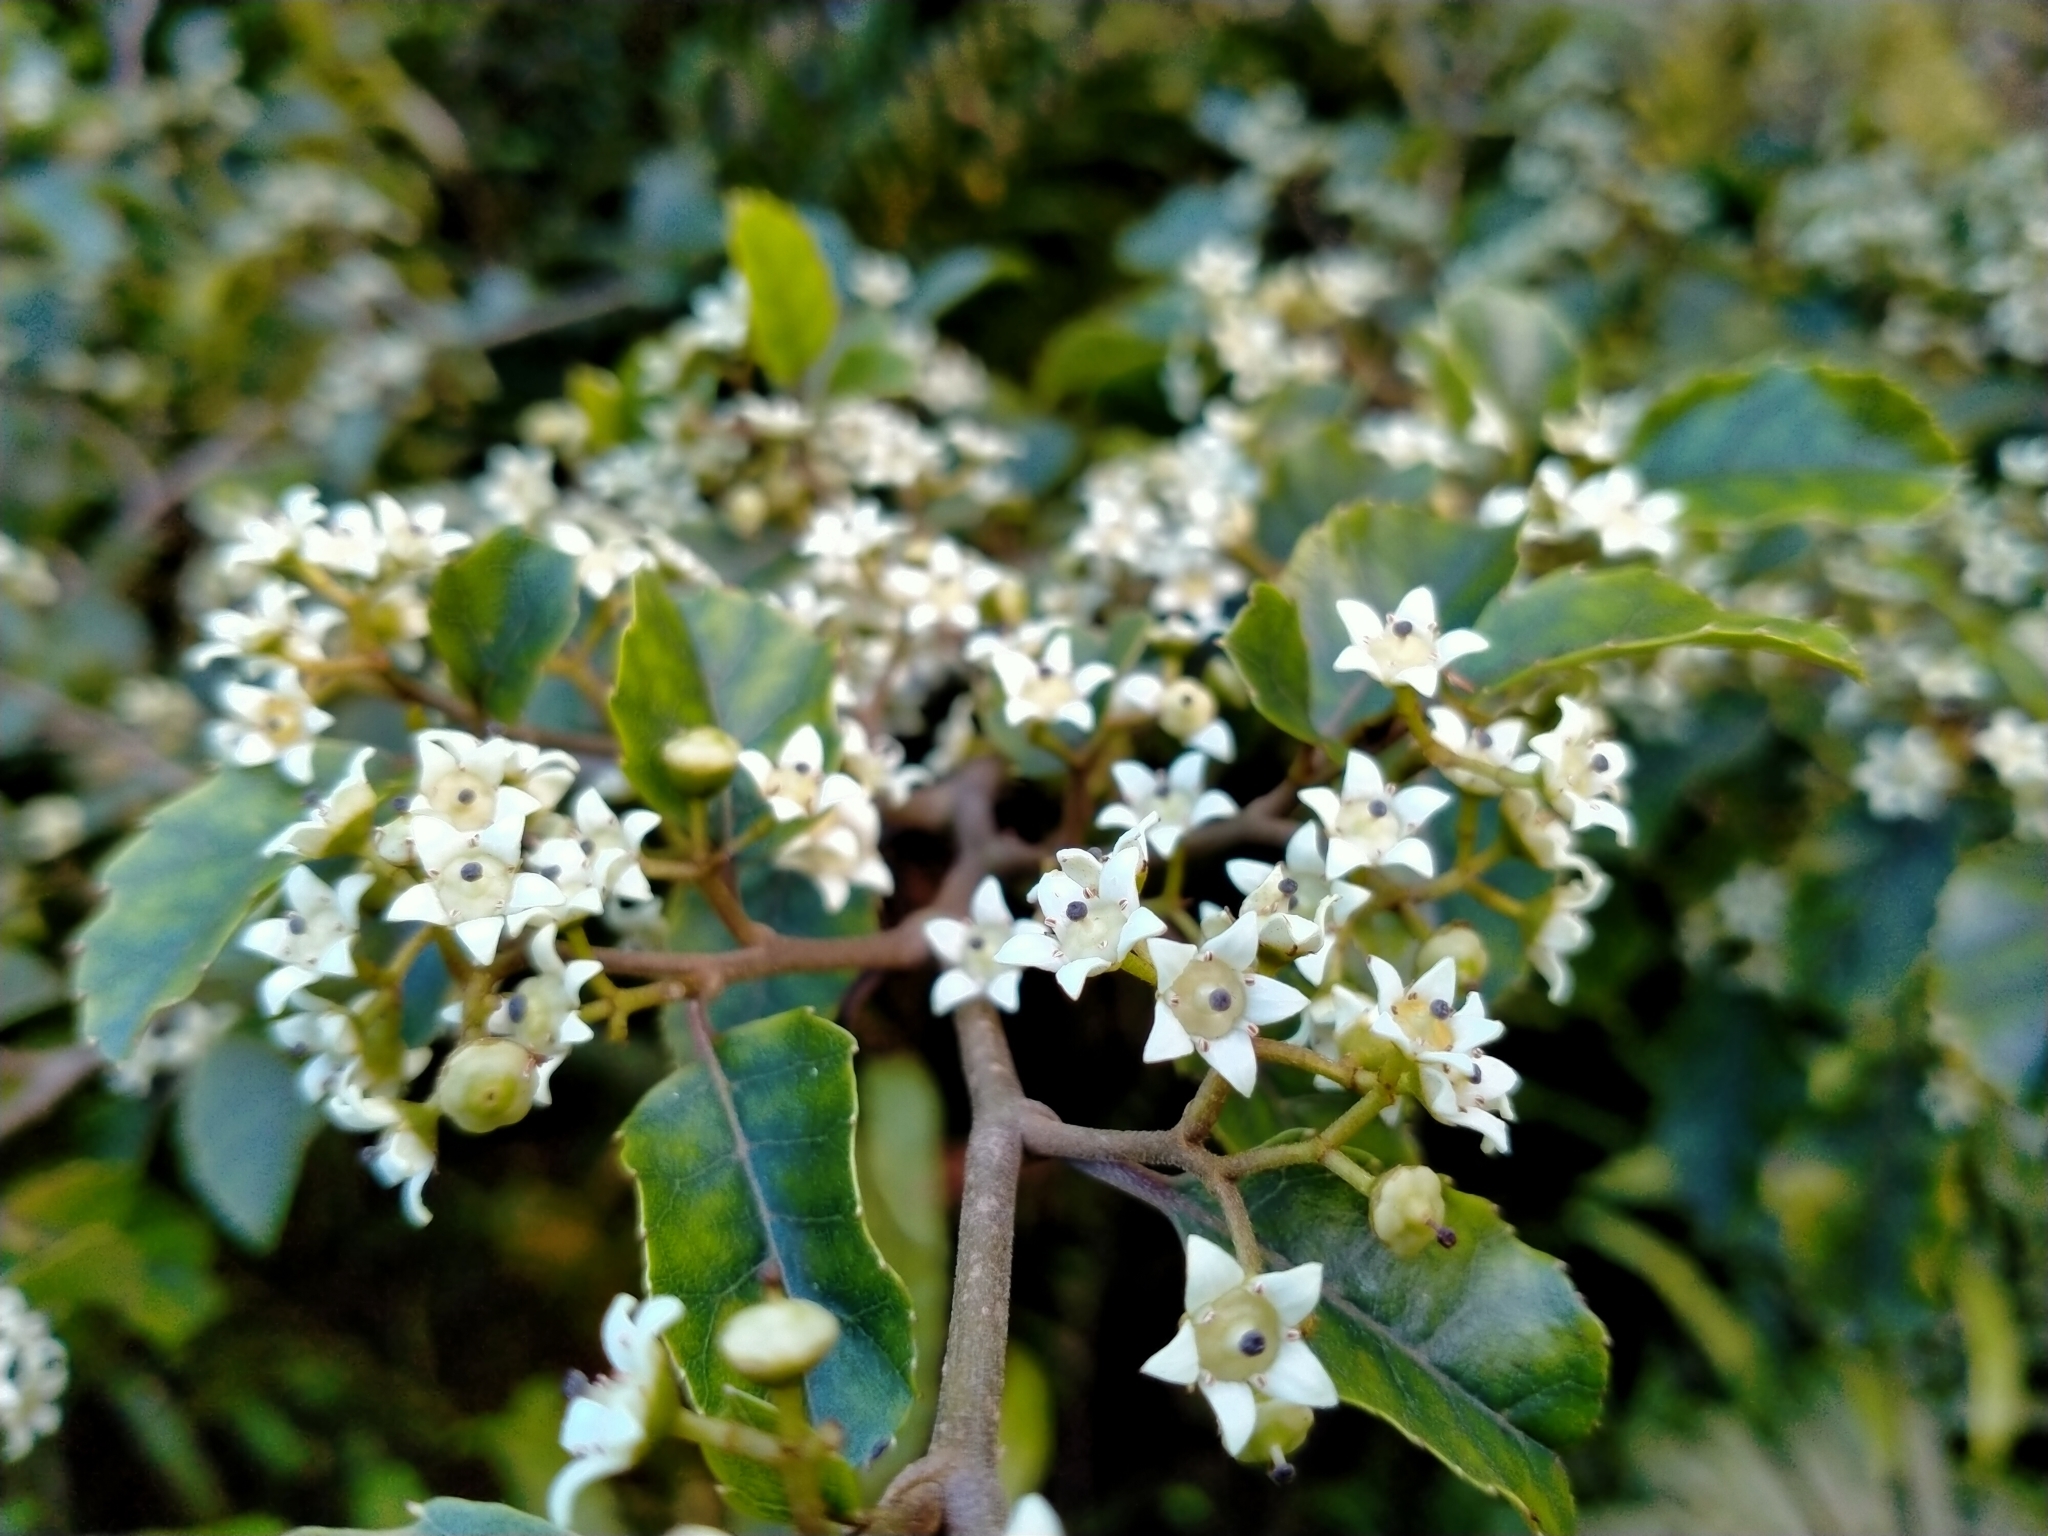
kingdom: Plantae
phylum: Tracheophyta
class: Magnoliopsida
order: Asterales
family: Rousseaceae
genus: Carpodetus
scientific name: Carpodetus serratus
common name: White mapau
